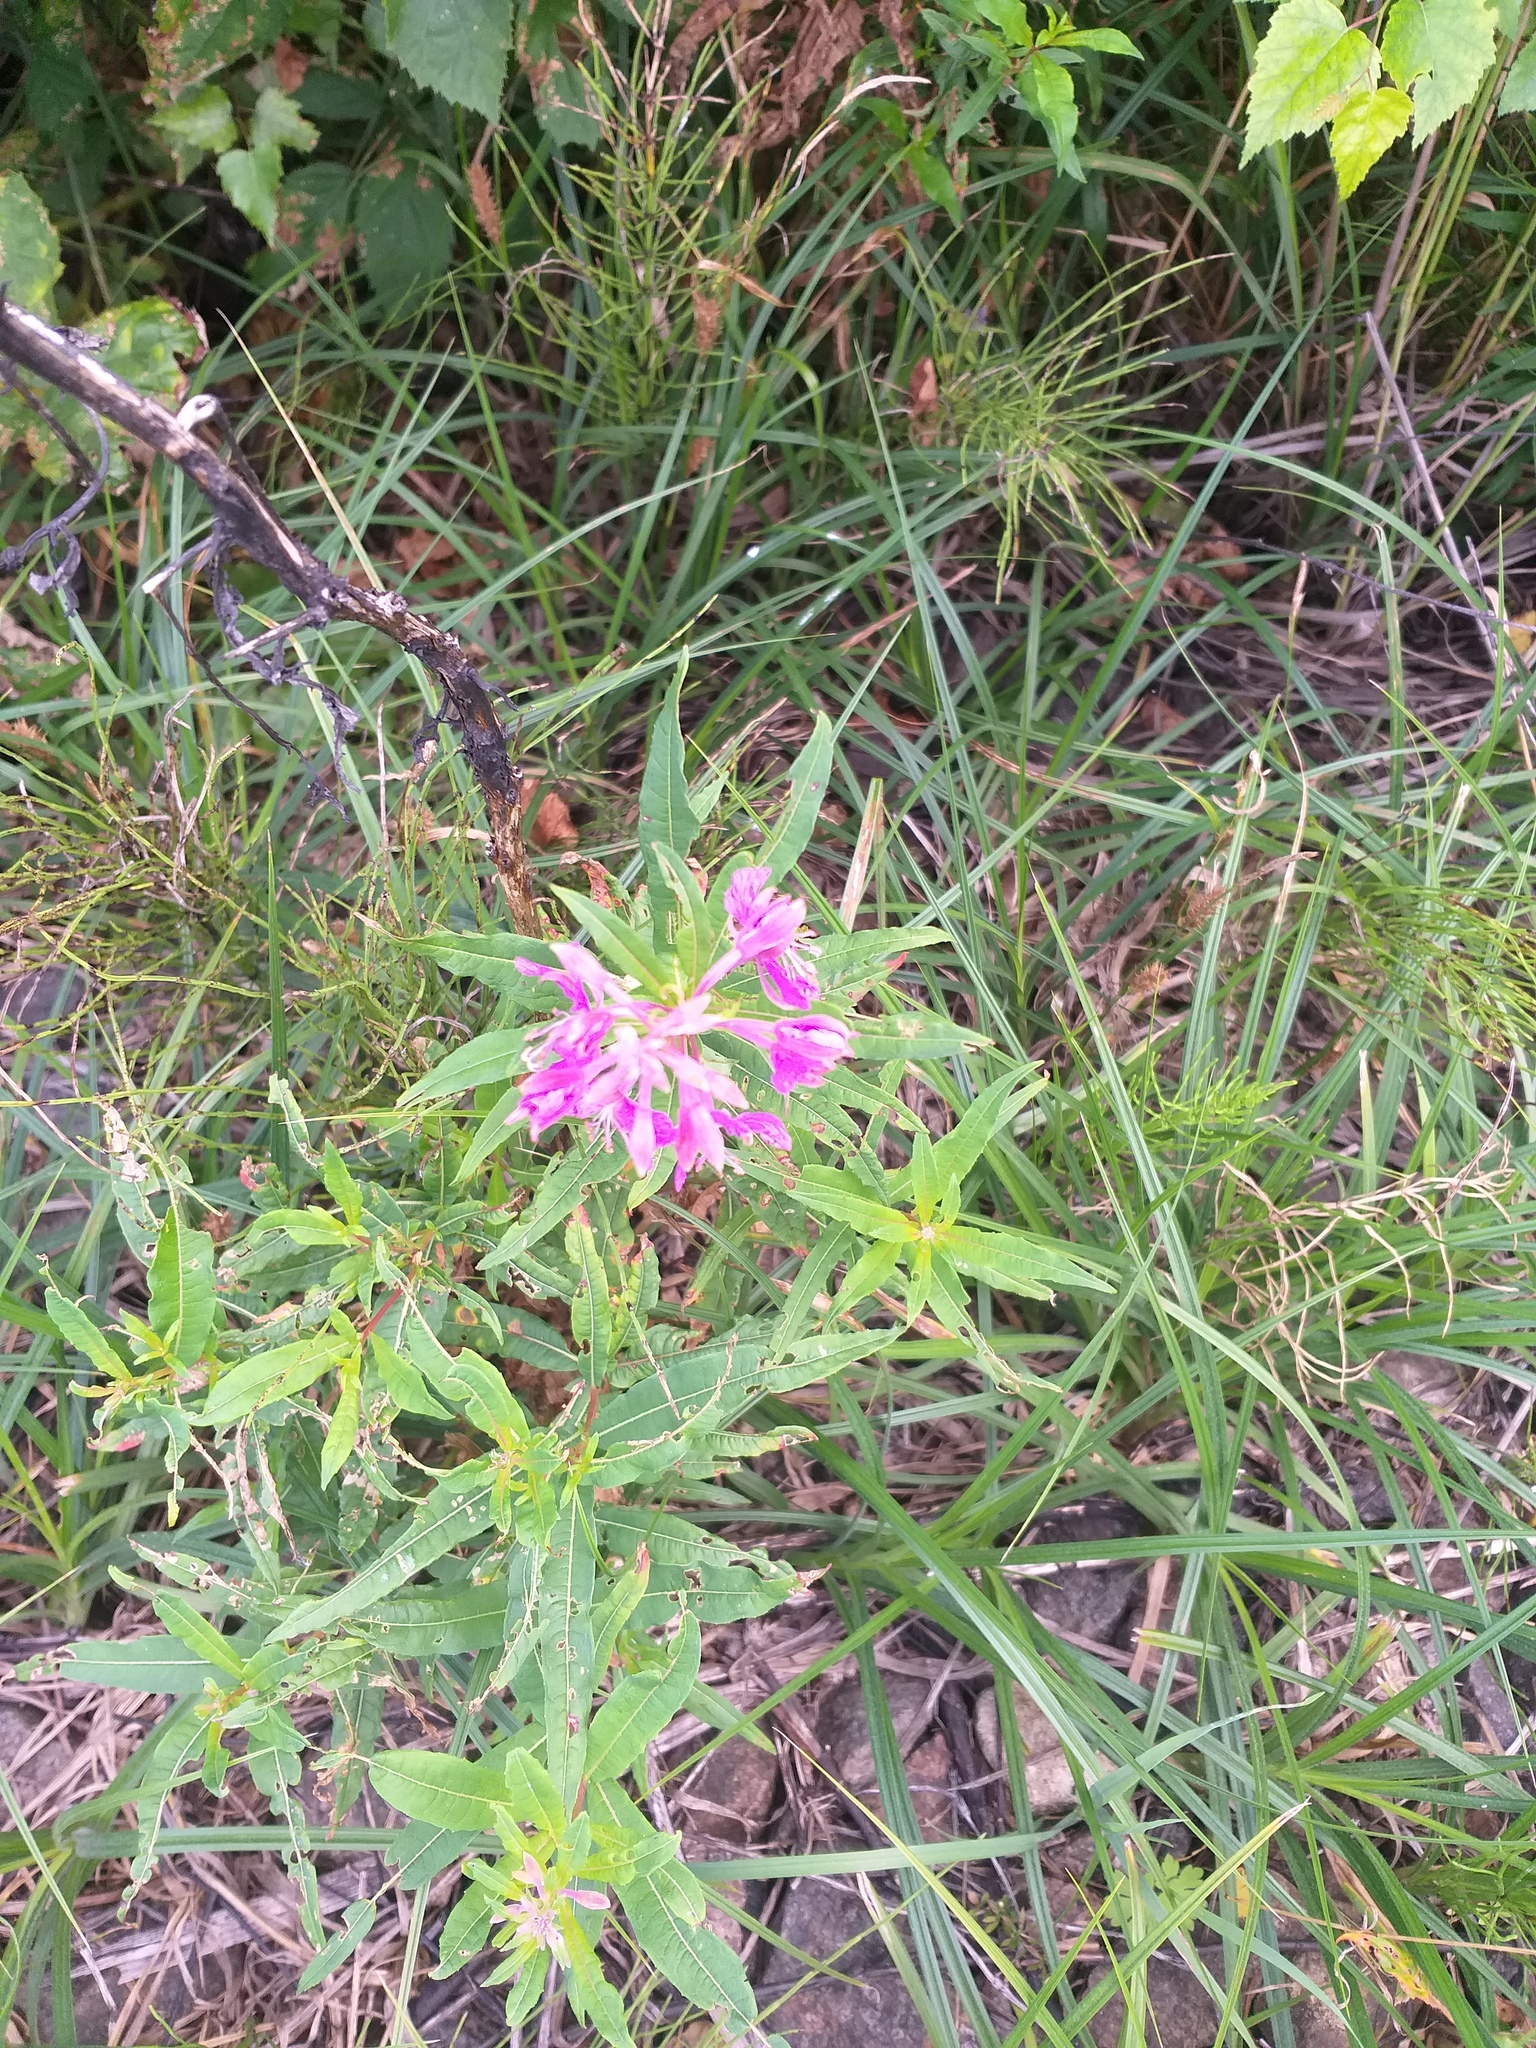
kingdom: Plantae
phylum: Tracheophyta
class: Magnoliopsida
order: Myrtales
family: Onagraceae
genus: Chamaenerion
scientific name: Chamaenerion angustifolium
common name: Fireweed
